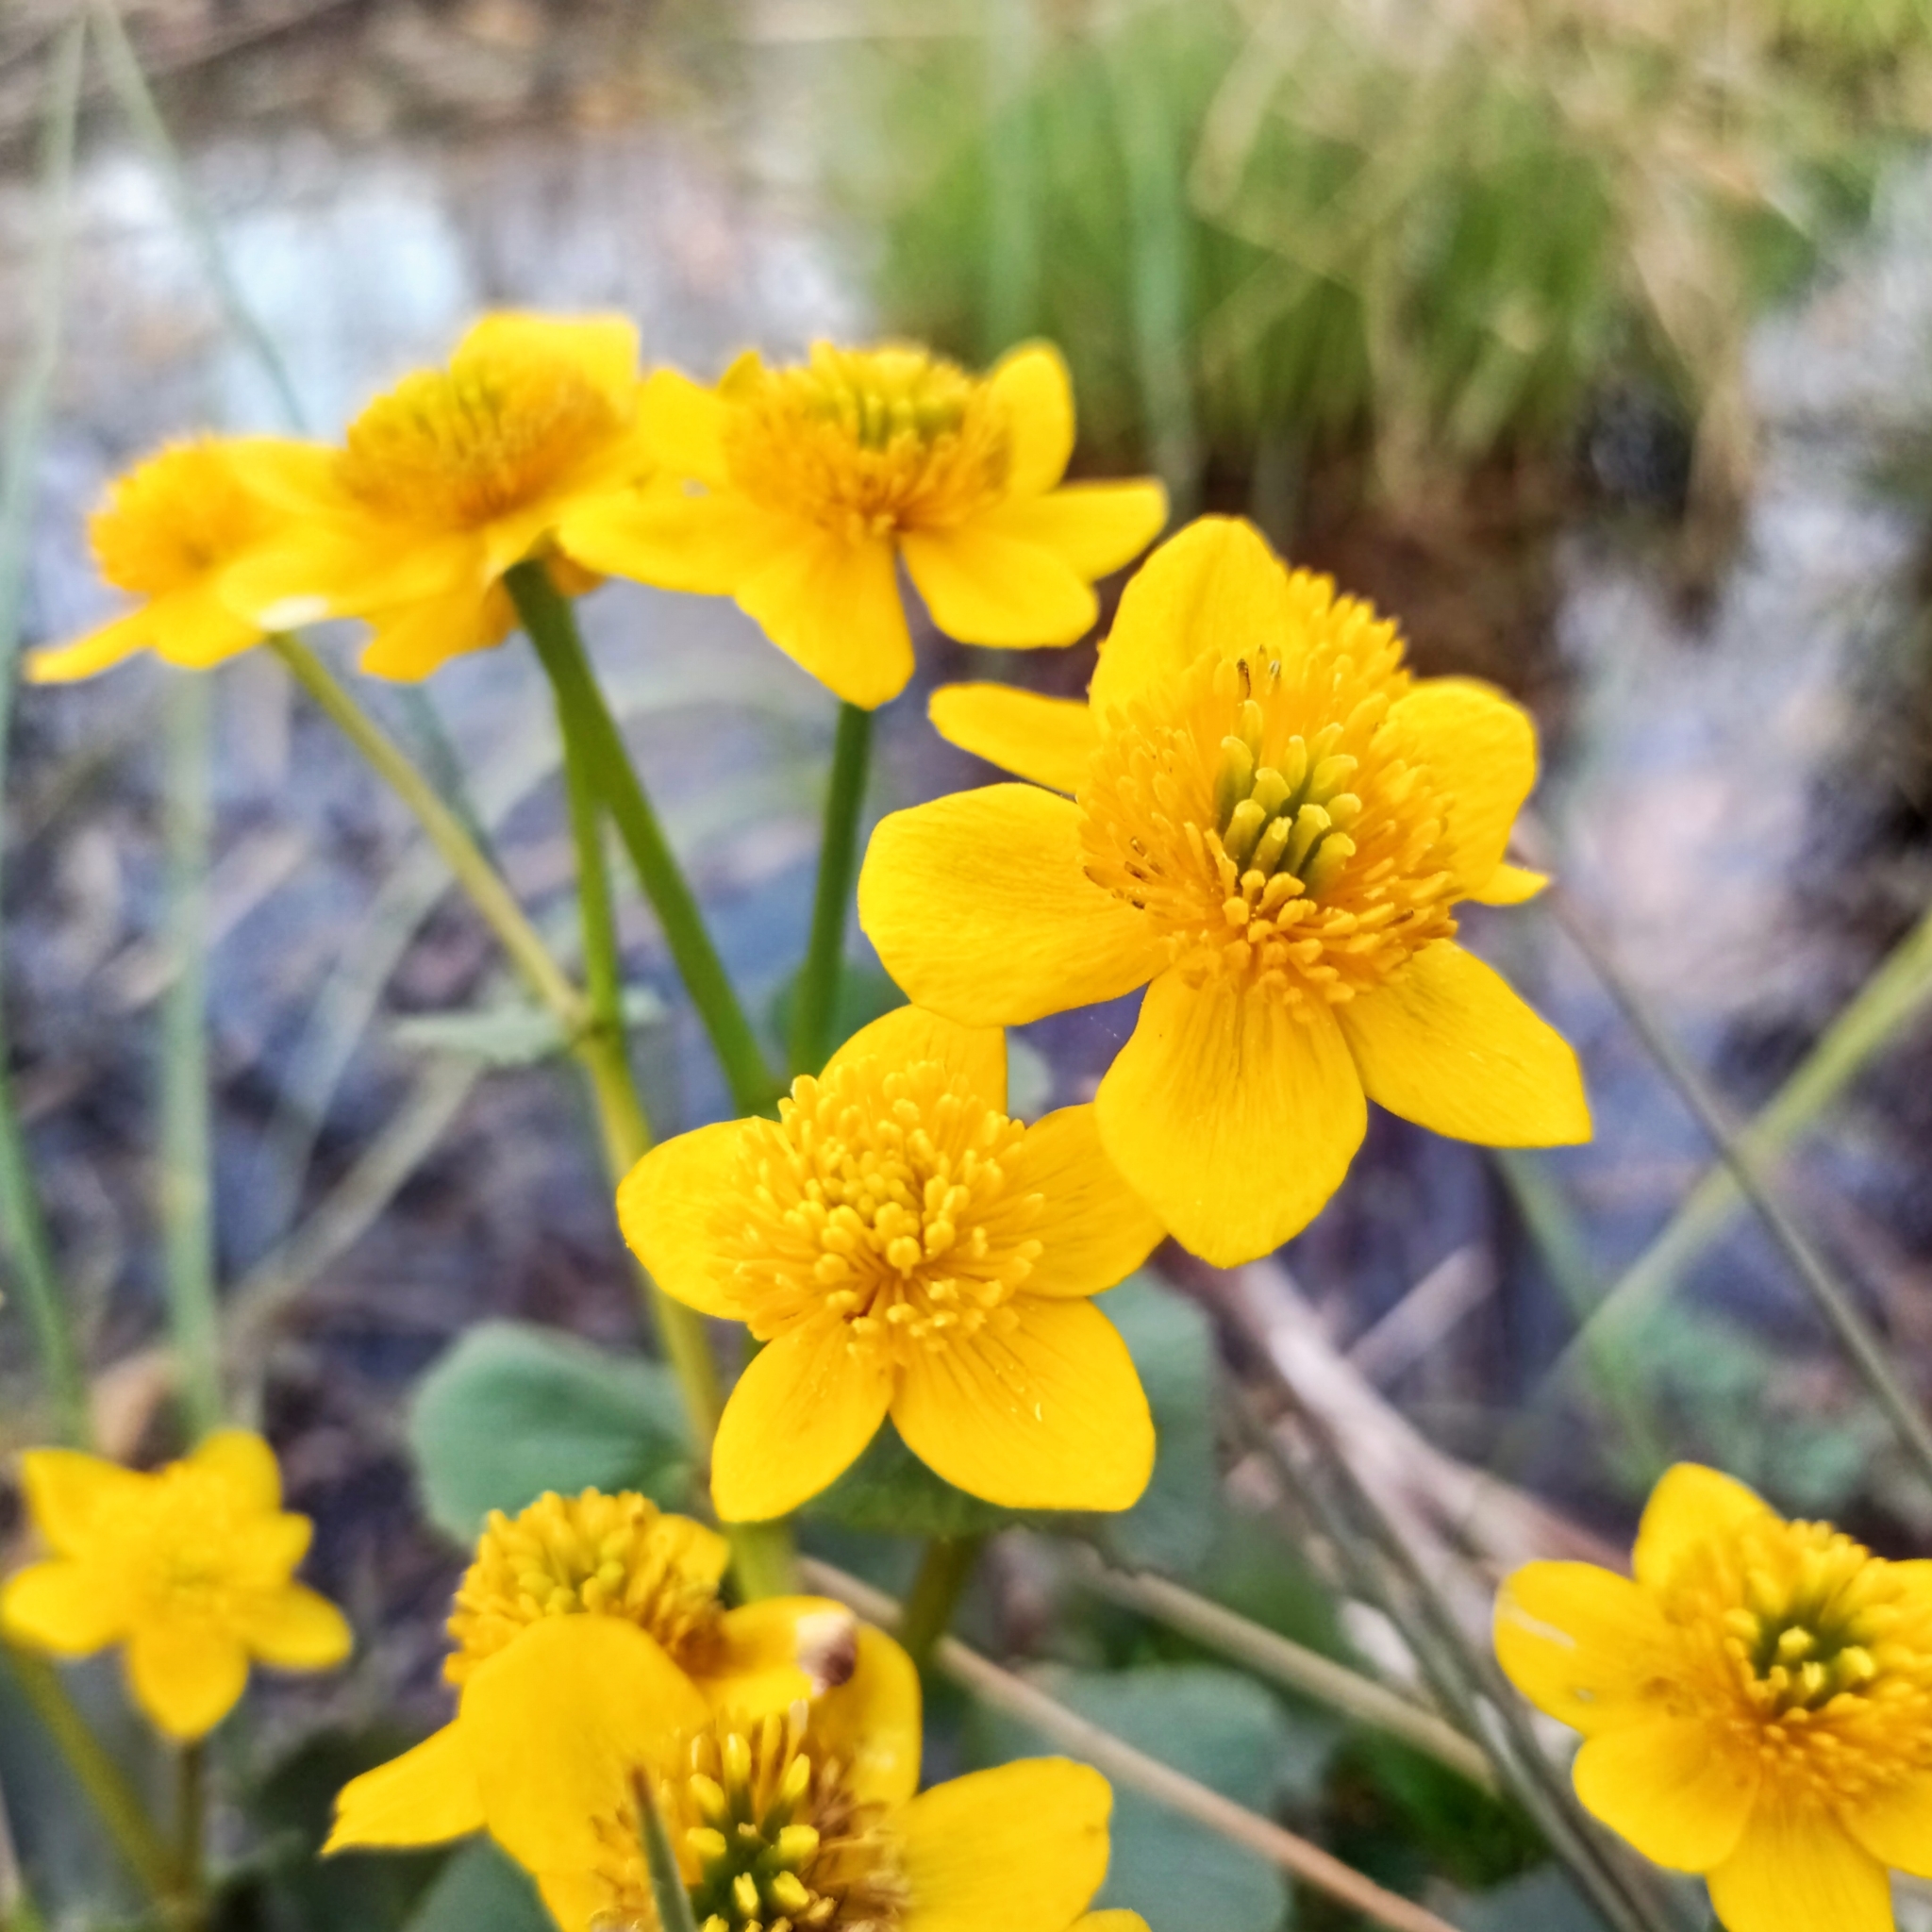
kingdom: Plantae
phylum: Tracheophyta
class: Magnoliopsida
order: Ranunculales
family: Ranunculaceae
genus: Caltha
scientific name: Caltha palustris
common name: Marsh marigold
